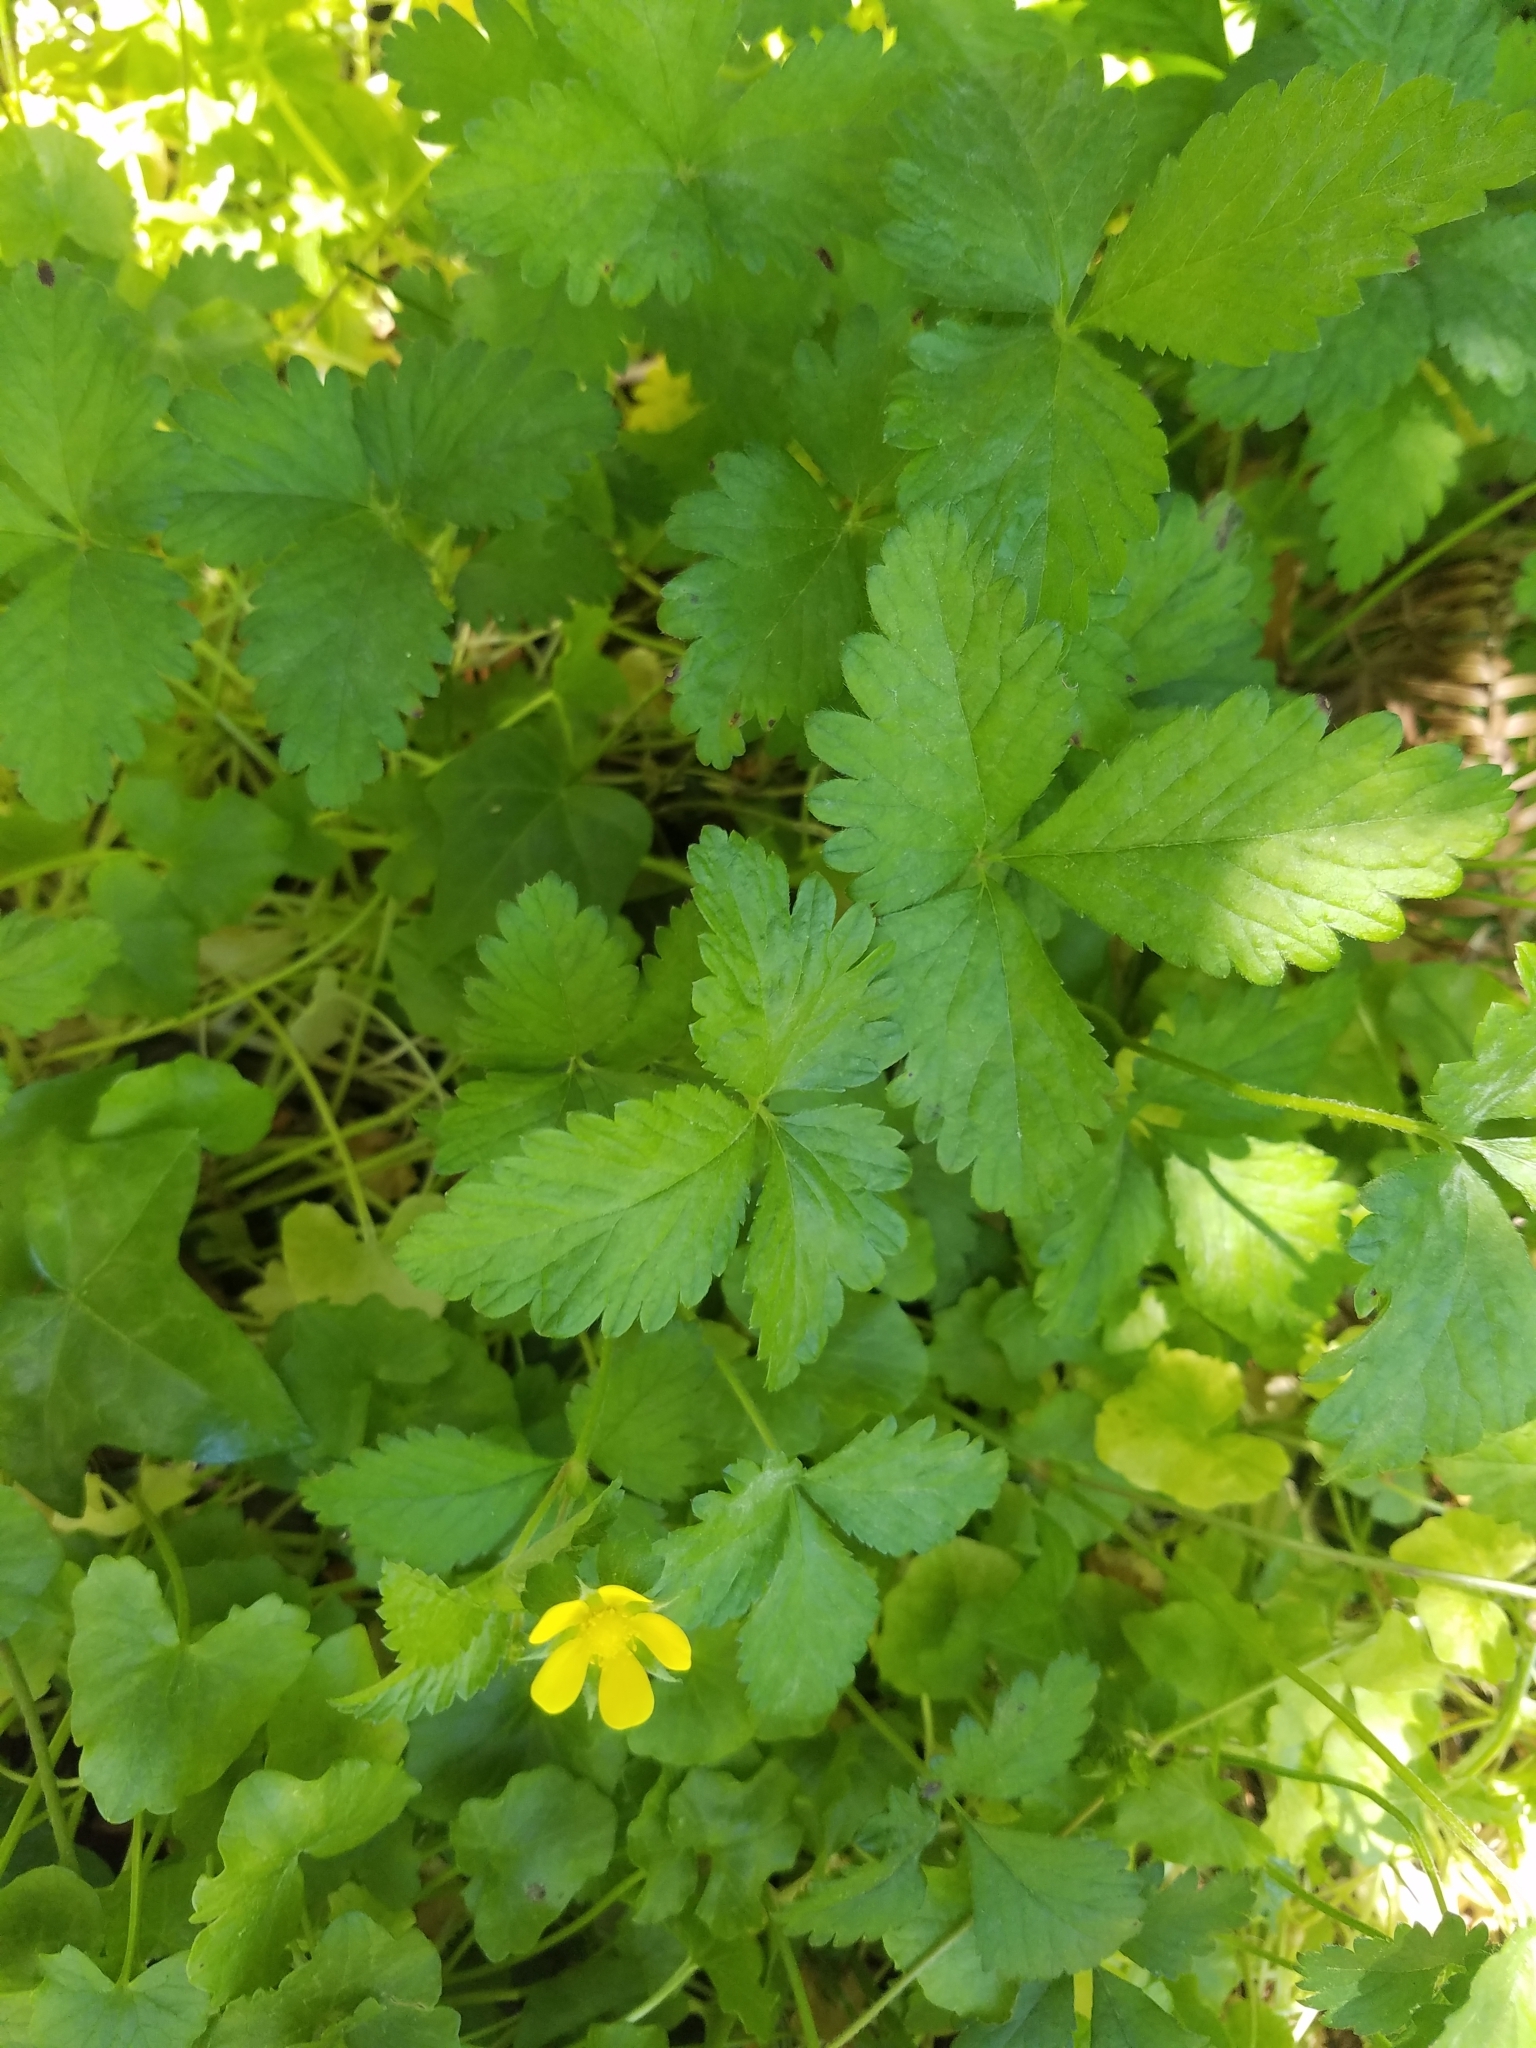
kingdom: Plantae
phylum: Tracheophyta
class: Magnoliopsida
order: Rosales
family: Rosaceae
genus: Potentilla
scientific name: Potentilla indica
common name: Yellow-flowered strawberry
